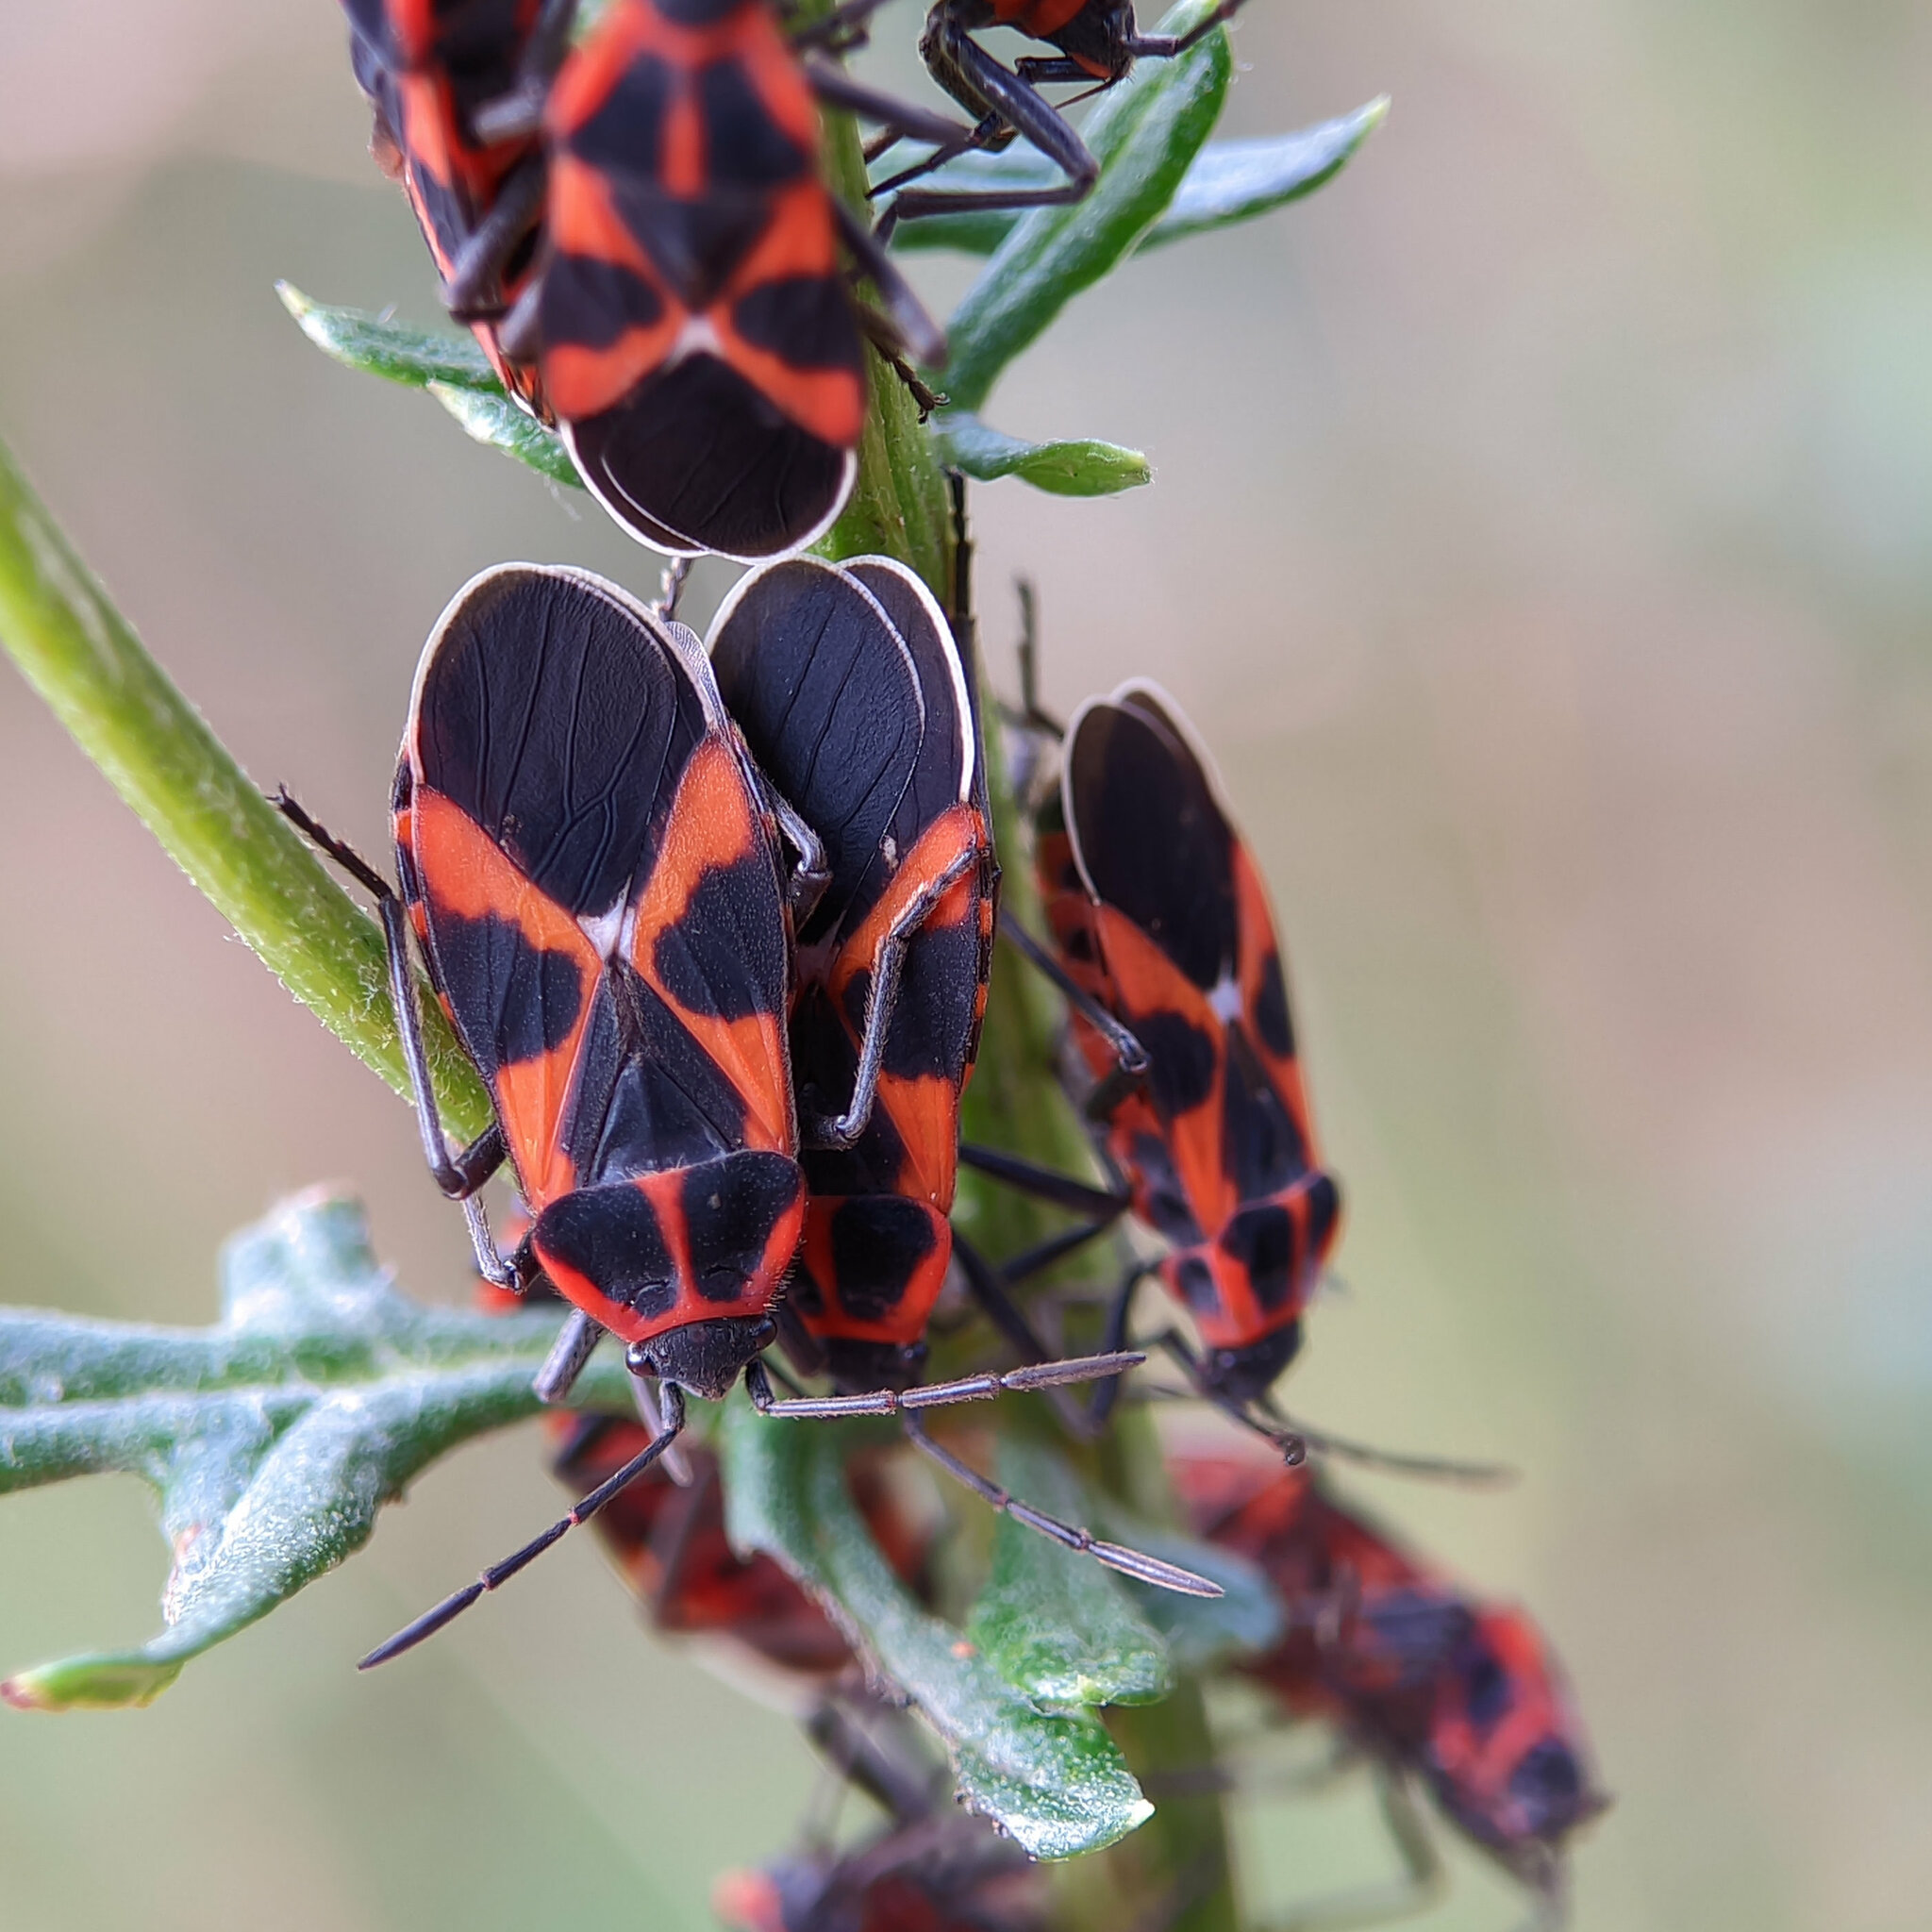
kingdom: Animalia
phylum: Arthropoda
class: Insecta
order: Hemiptera
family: Lygaeidae
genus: Tropidothorax
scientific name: Tropidothorax leucopterus
